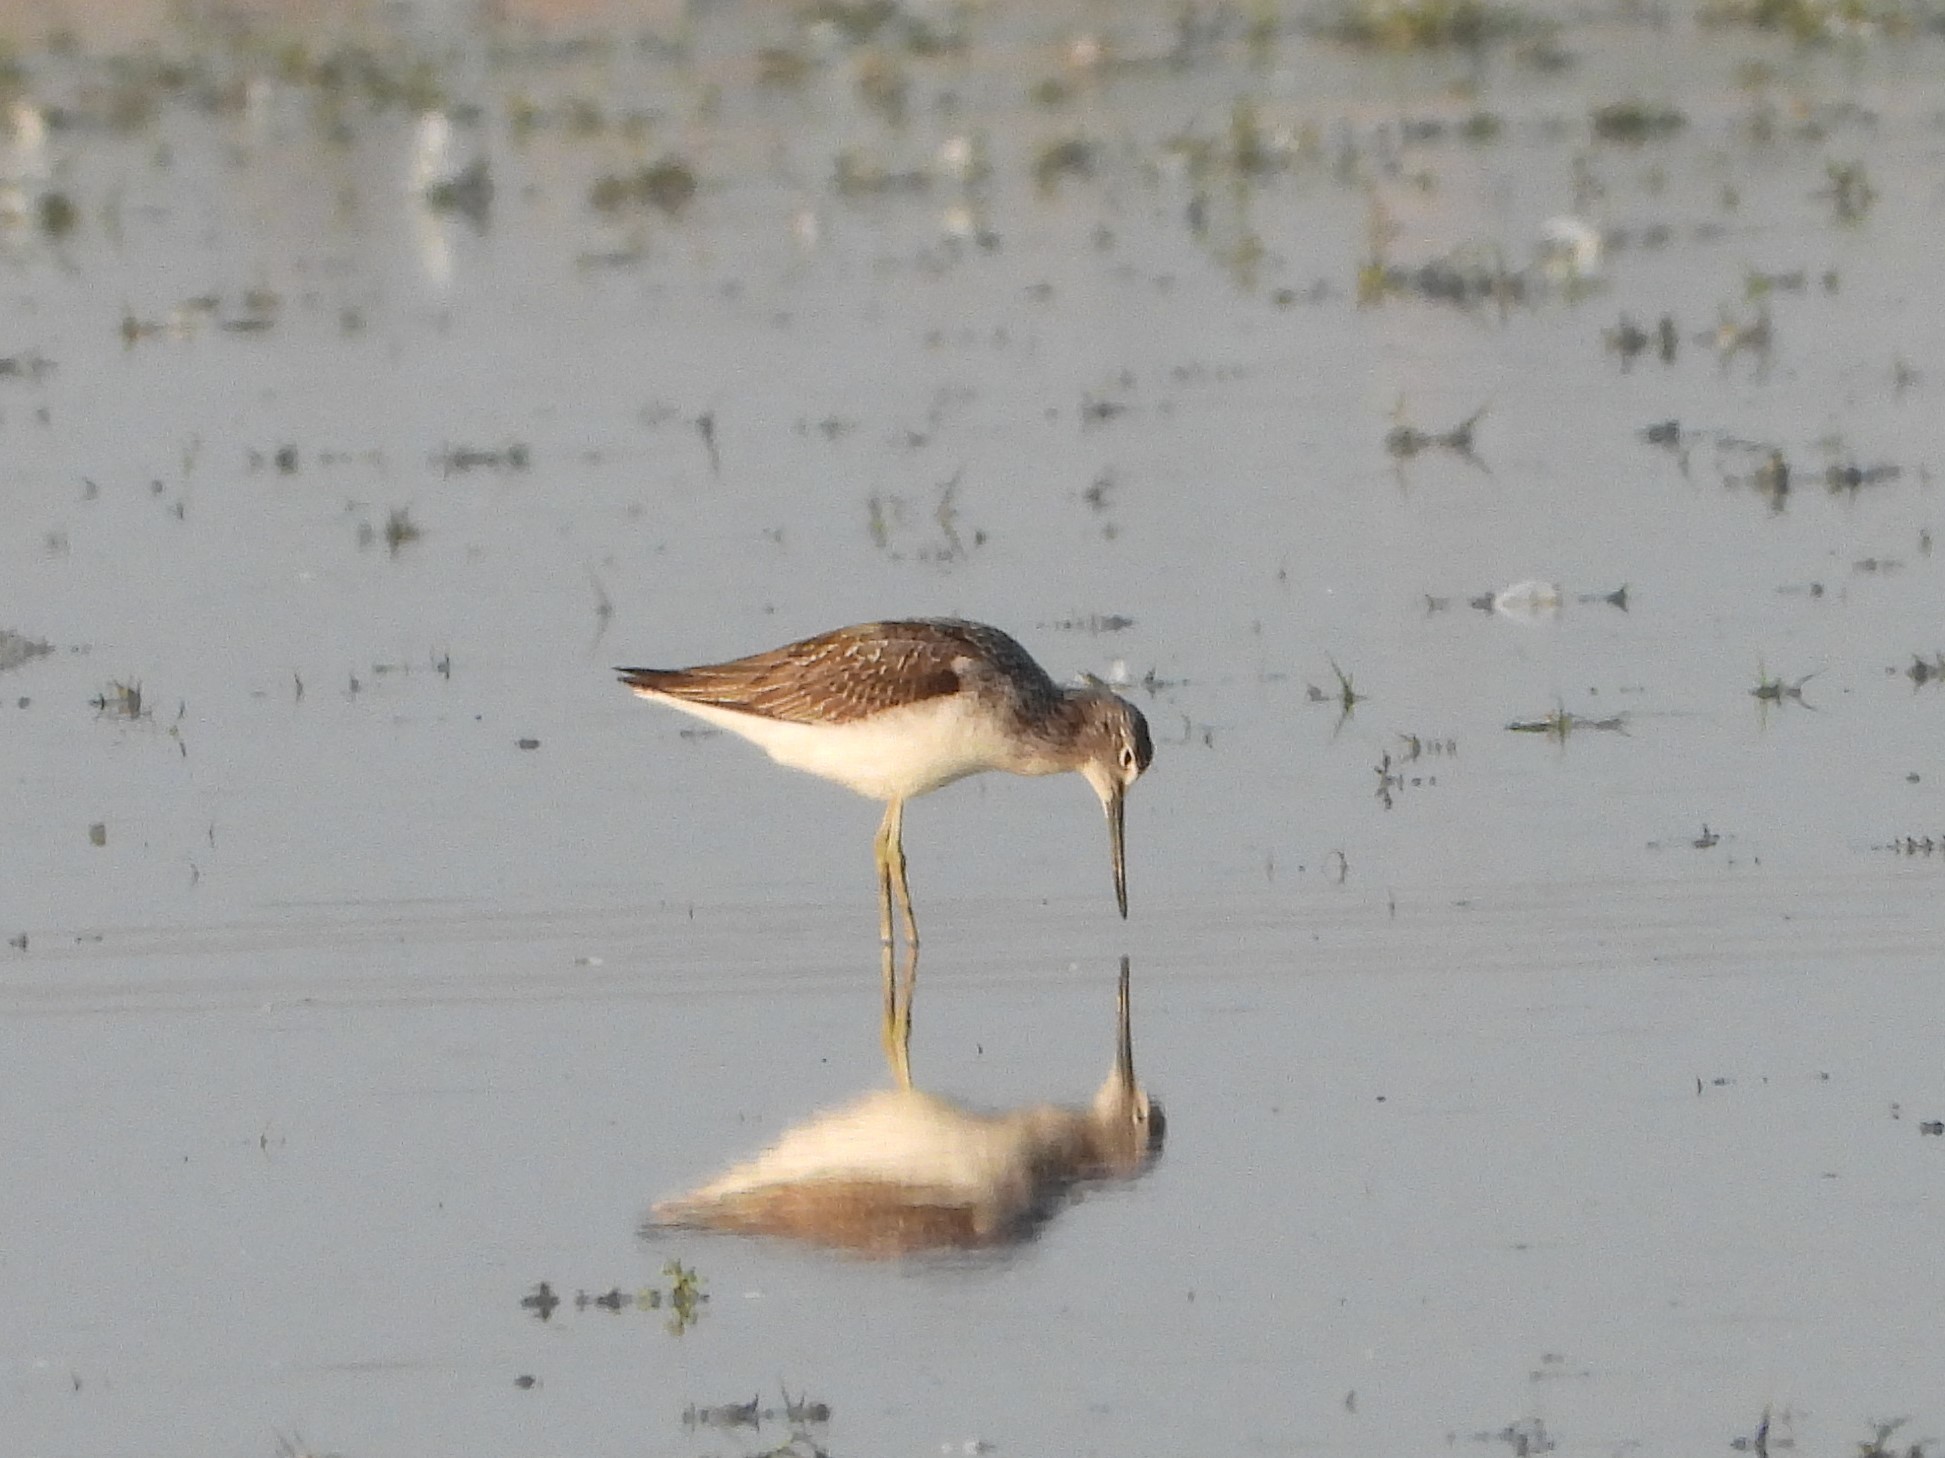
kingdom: Animalia
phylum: Chordata
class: Aves
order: Charadriiformes
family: Scolopacidae
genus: Tringa
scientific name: Tringa nebularia
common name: Common greenshank
